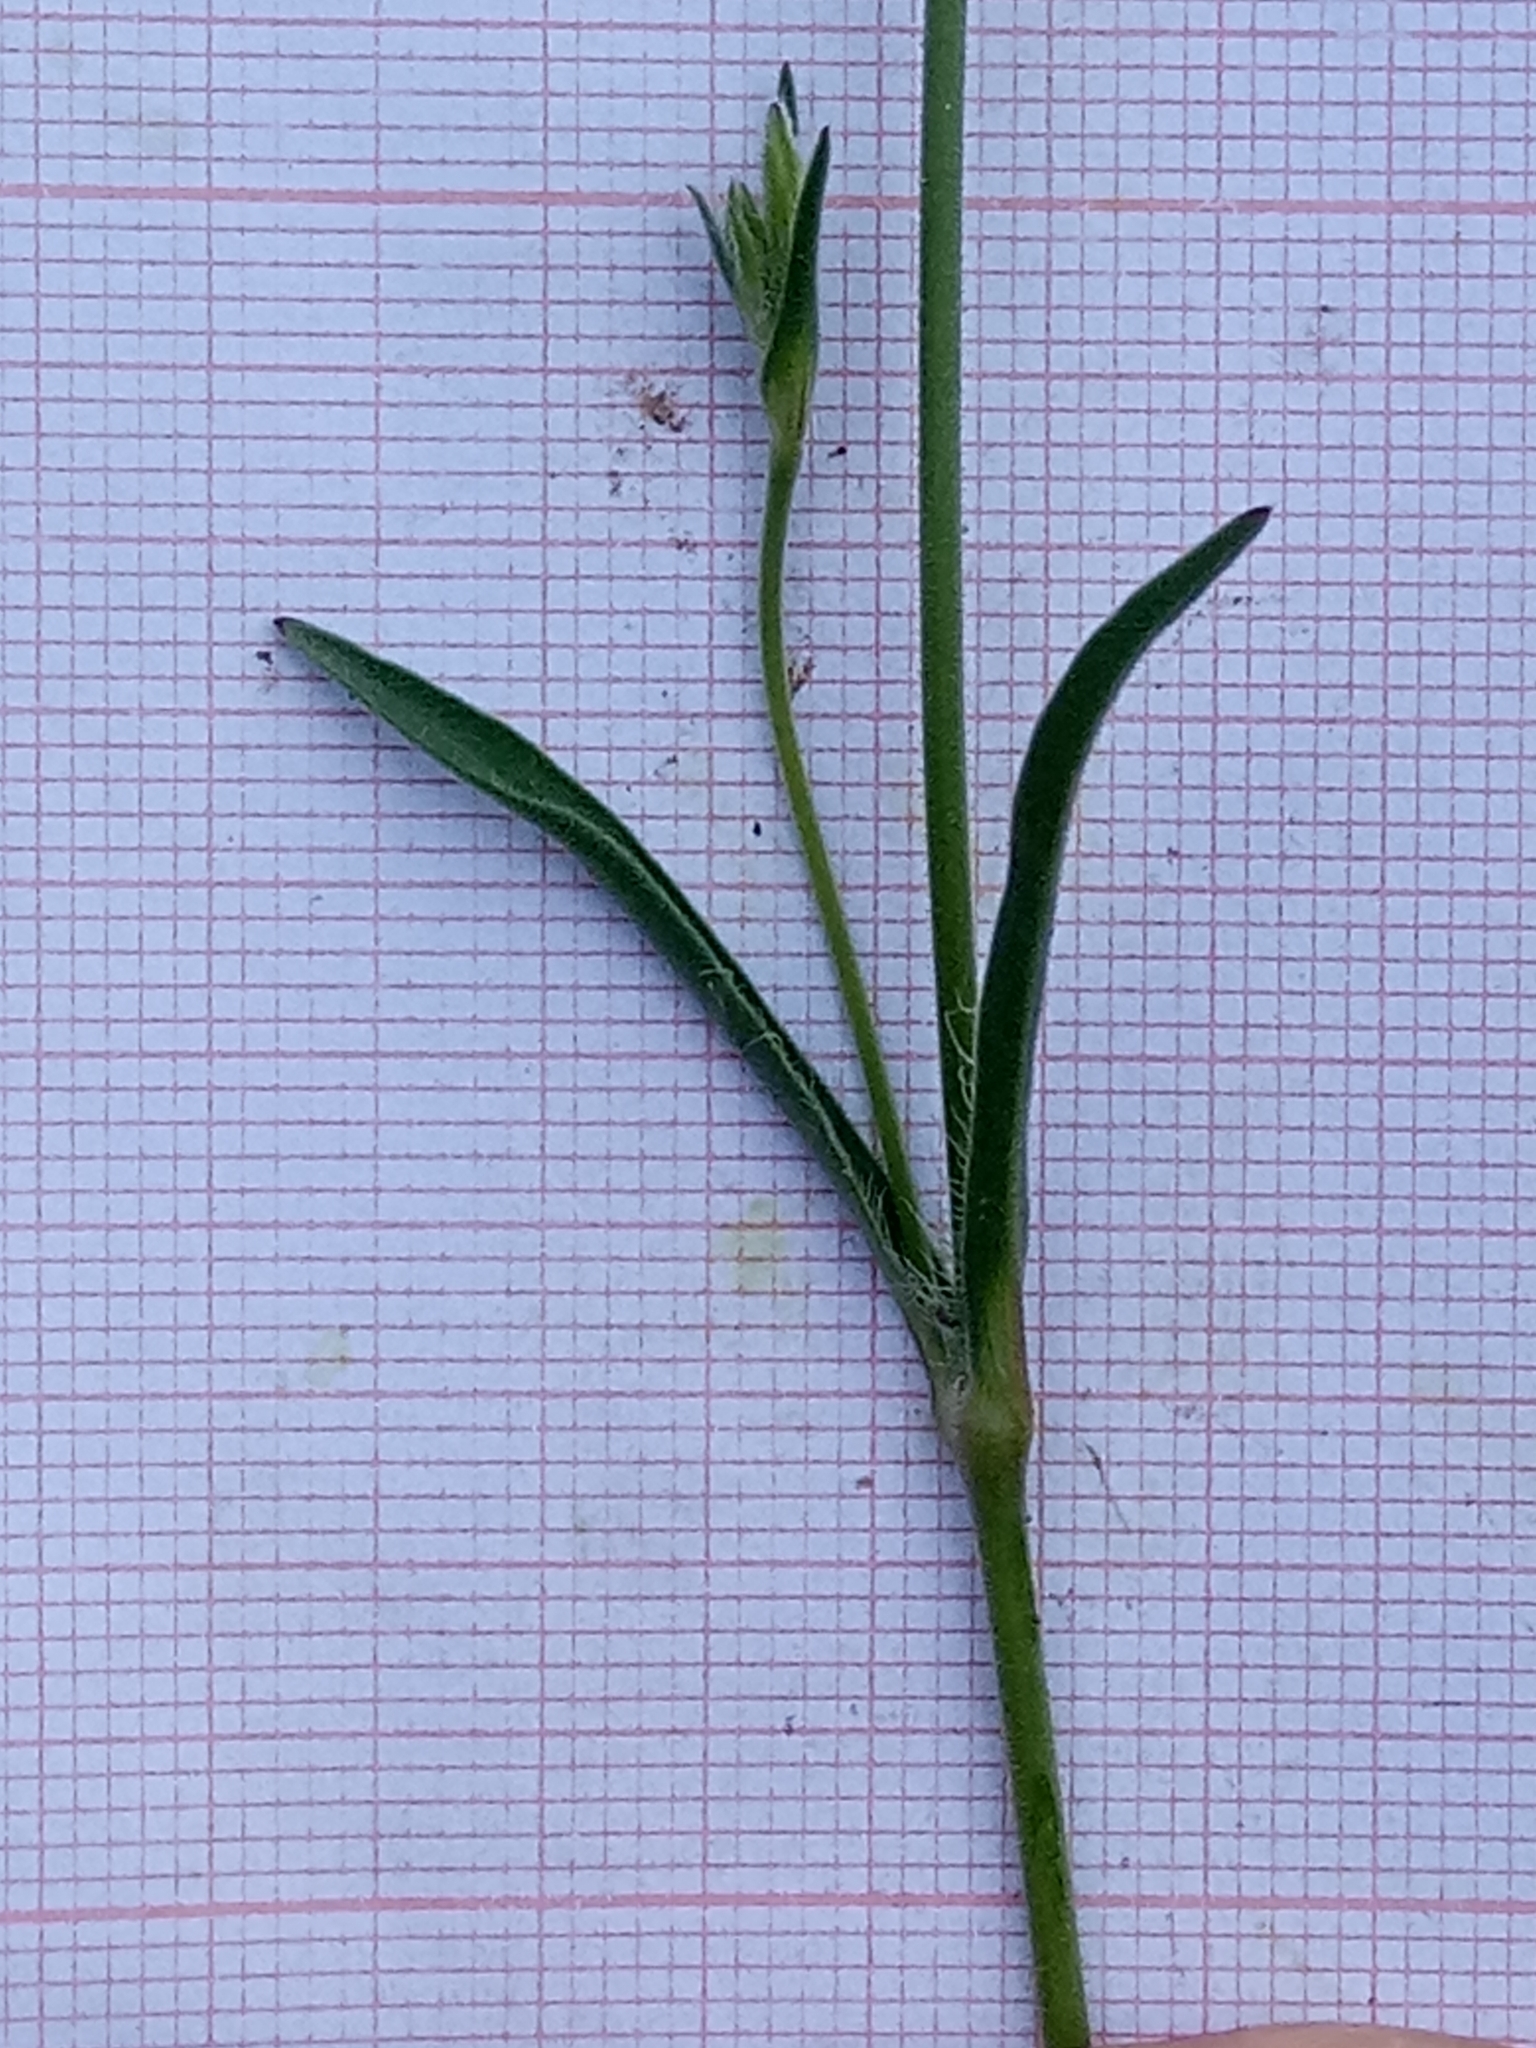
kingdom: Plantae
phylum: Tracheophyta
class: Magnoliopsida
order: Caryophyllales
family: Caryophyllaceae
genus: Silene
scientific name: Silene nocturna
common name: Mediterranean catchfly
